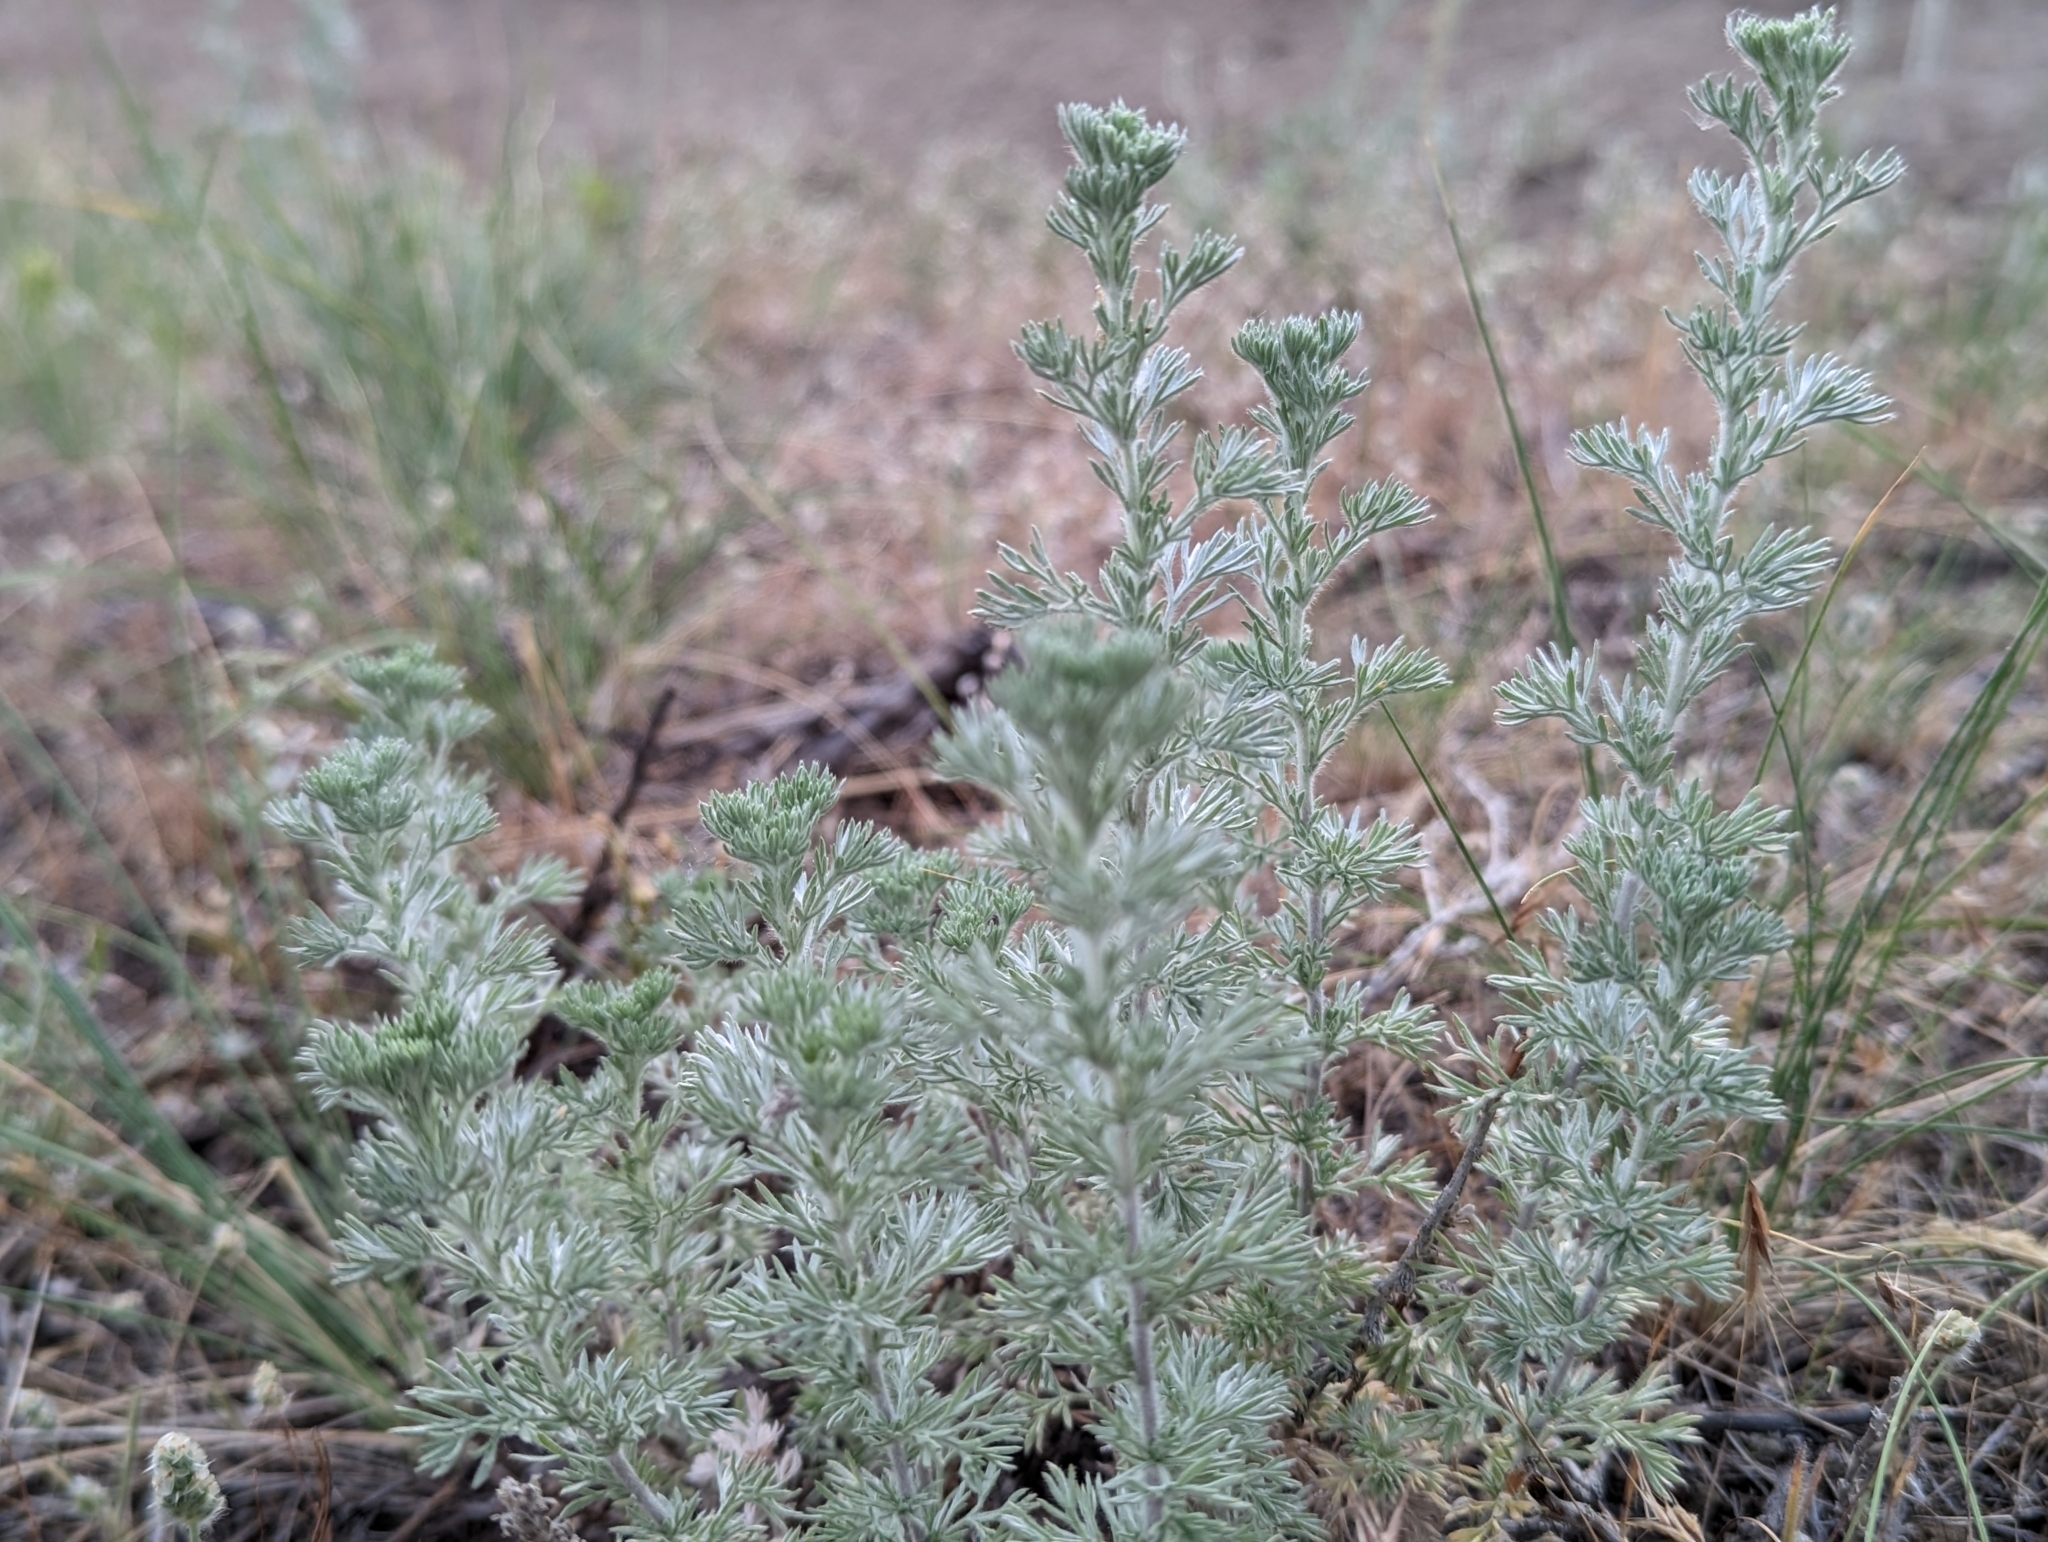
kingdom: Plantae
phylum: Tracheophyta
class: Magnoliopsida
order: Asterales
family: Asteraceae
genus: Artemisia
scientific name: Artemisia frigida
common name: Prairie sagewort
